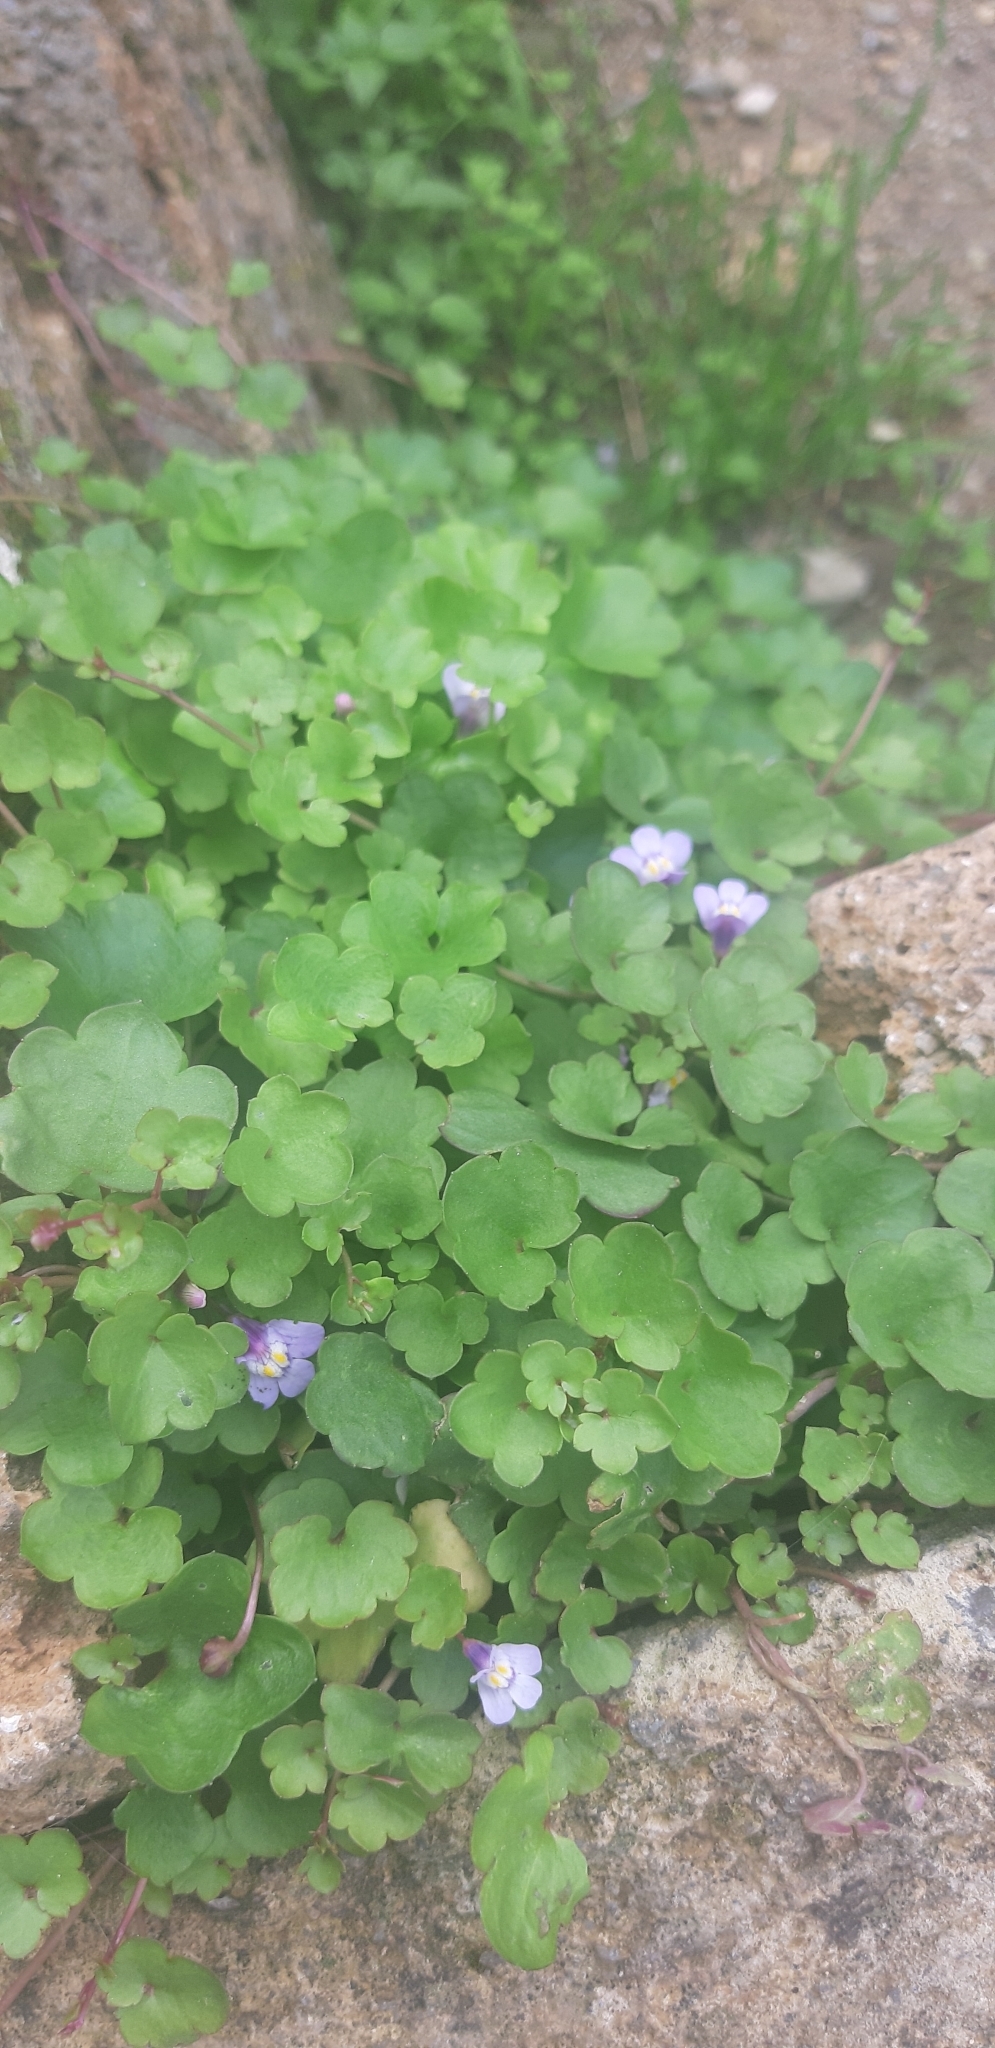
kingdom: Plantae
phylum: Tracheophyta
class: Magnoliopsida
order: Lamiales
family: Plantaginaceae
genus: Cymbalaria
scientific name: Cymbalaria muralis
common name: Ivy-leaved toadflax
